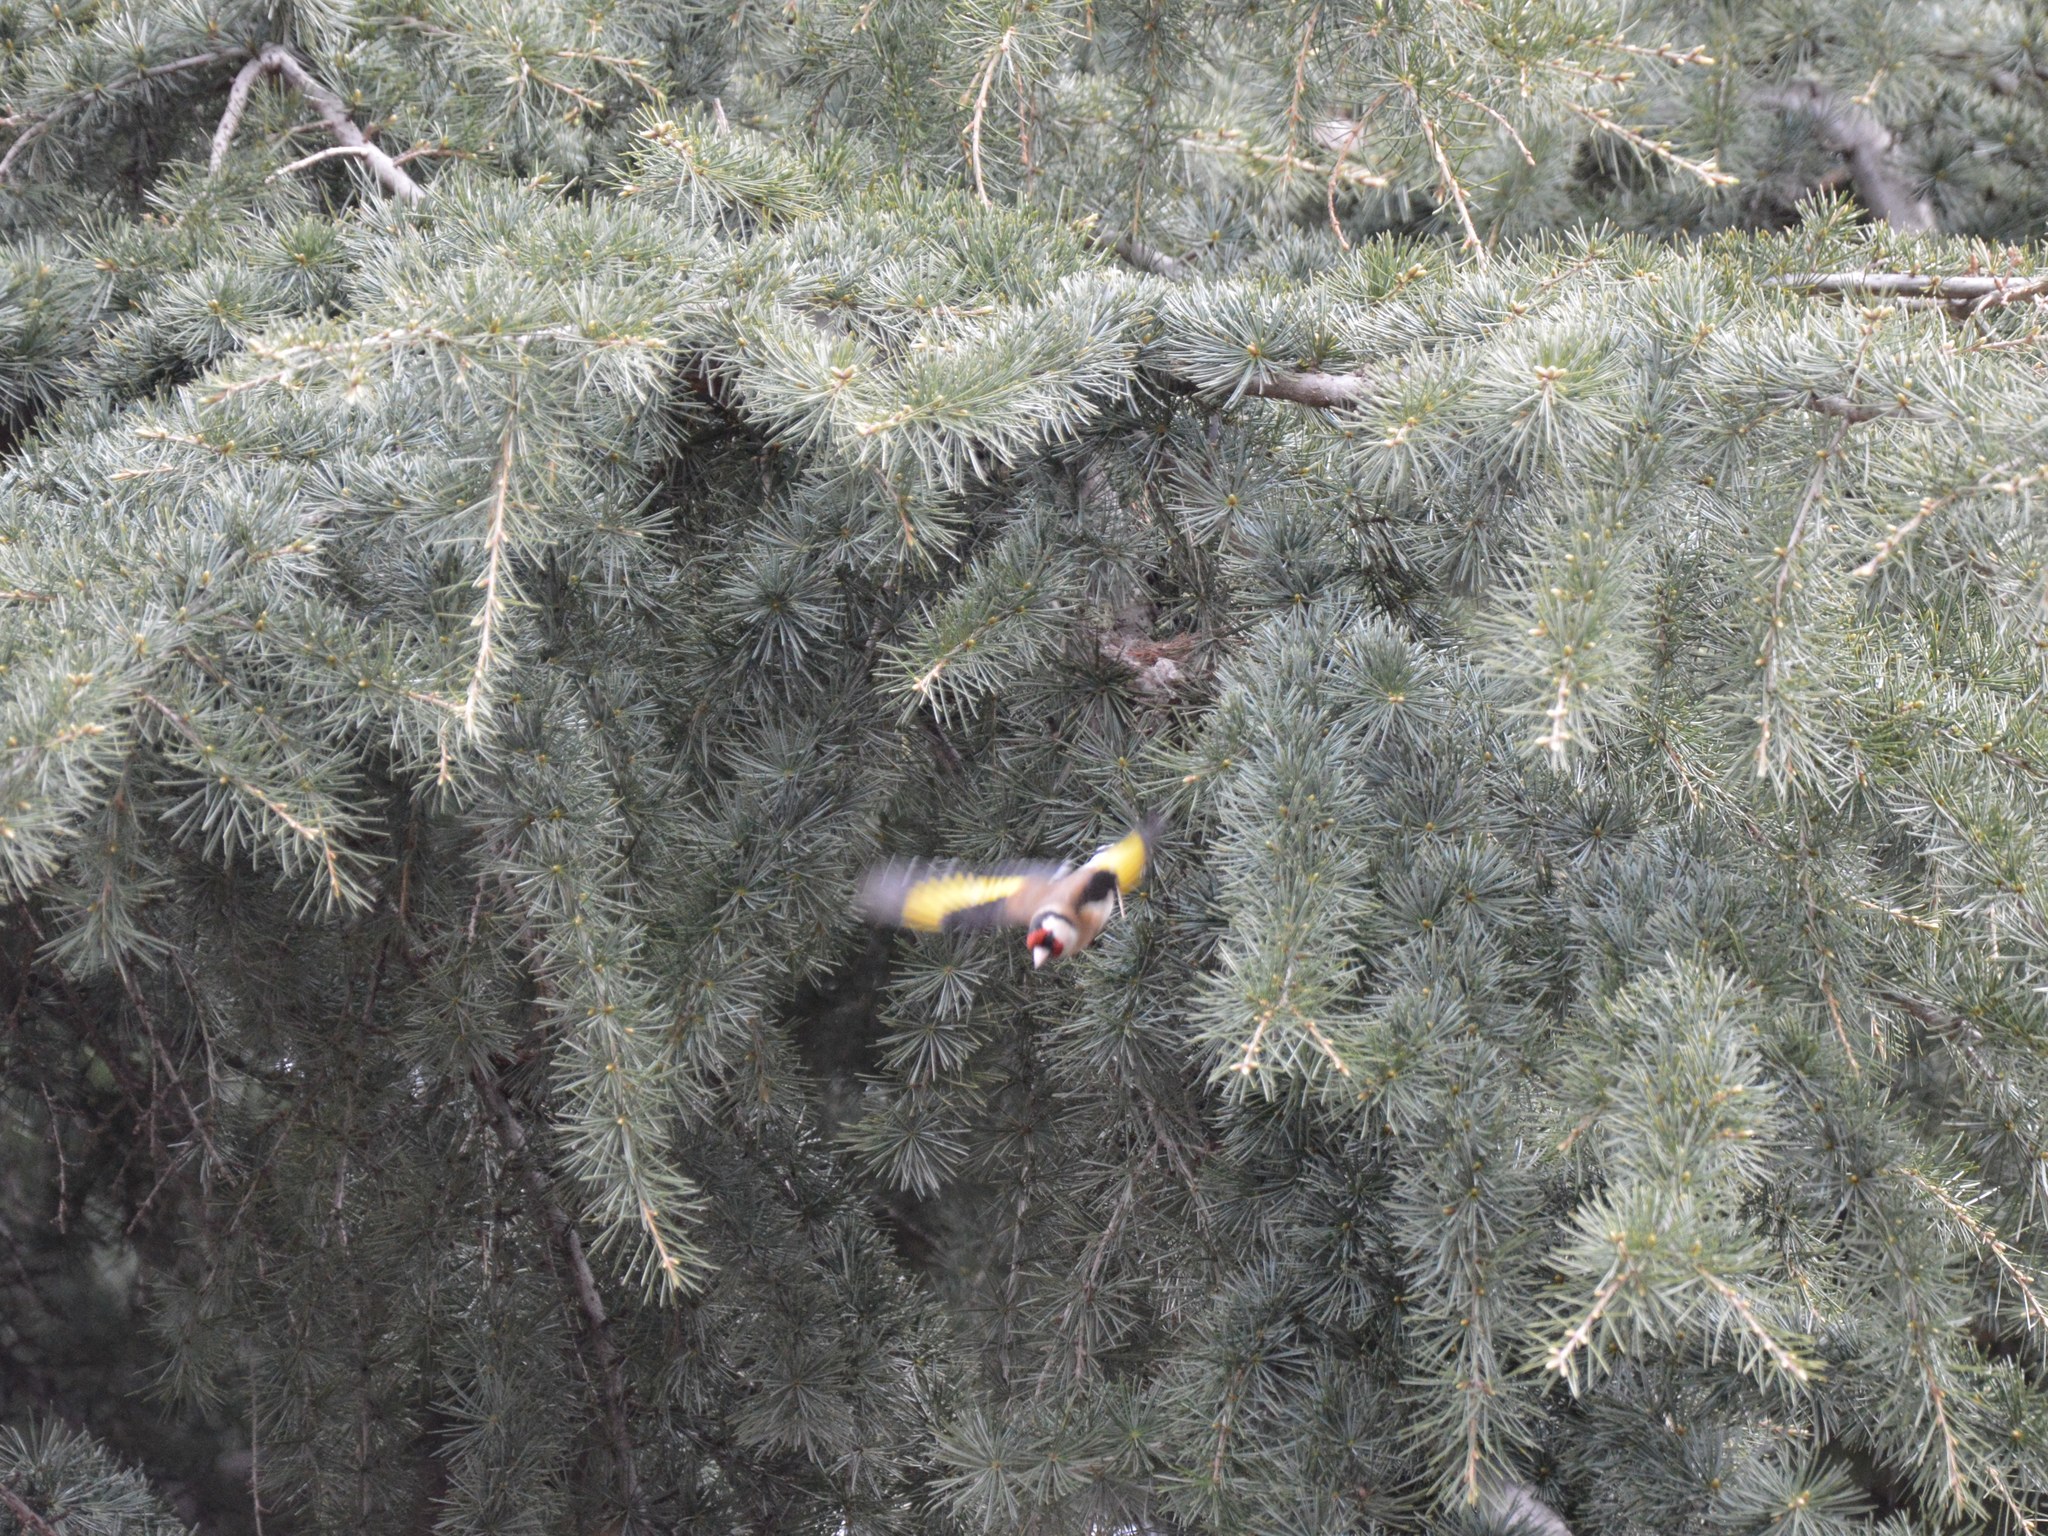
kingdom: Animalia
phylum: Chordata
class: Aves
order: Passeriformes
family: Fringillidae
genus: Carduelis
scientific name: Carduelis carduelis
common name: European goldfinch
